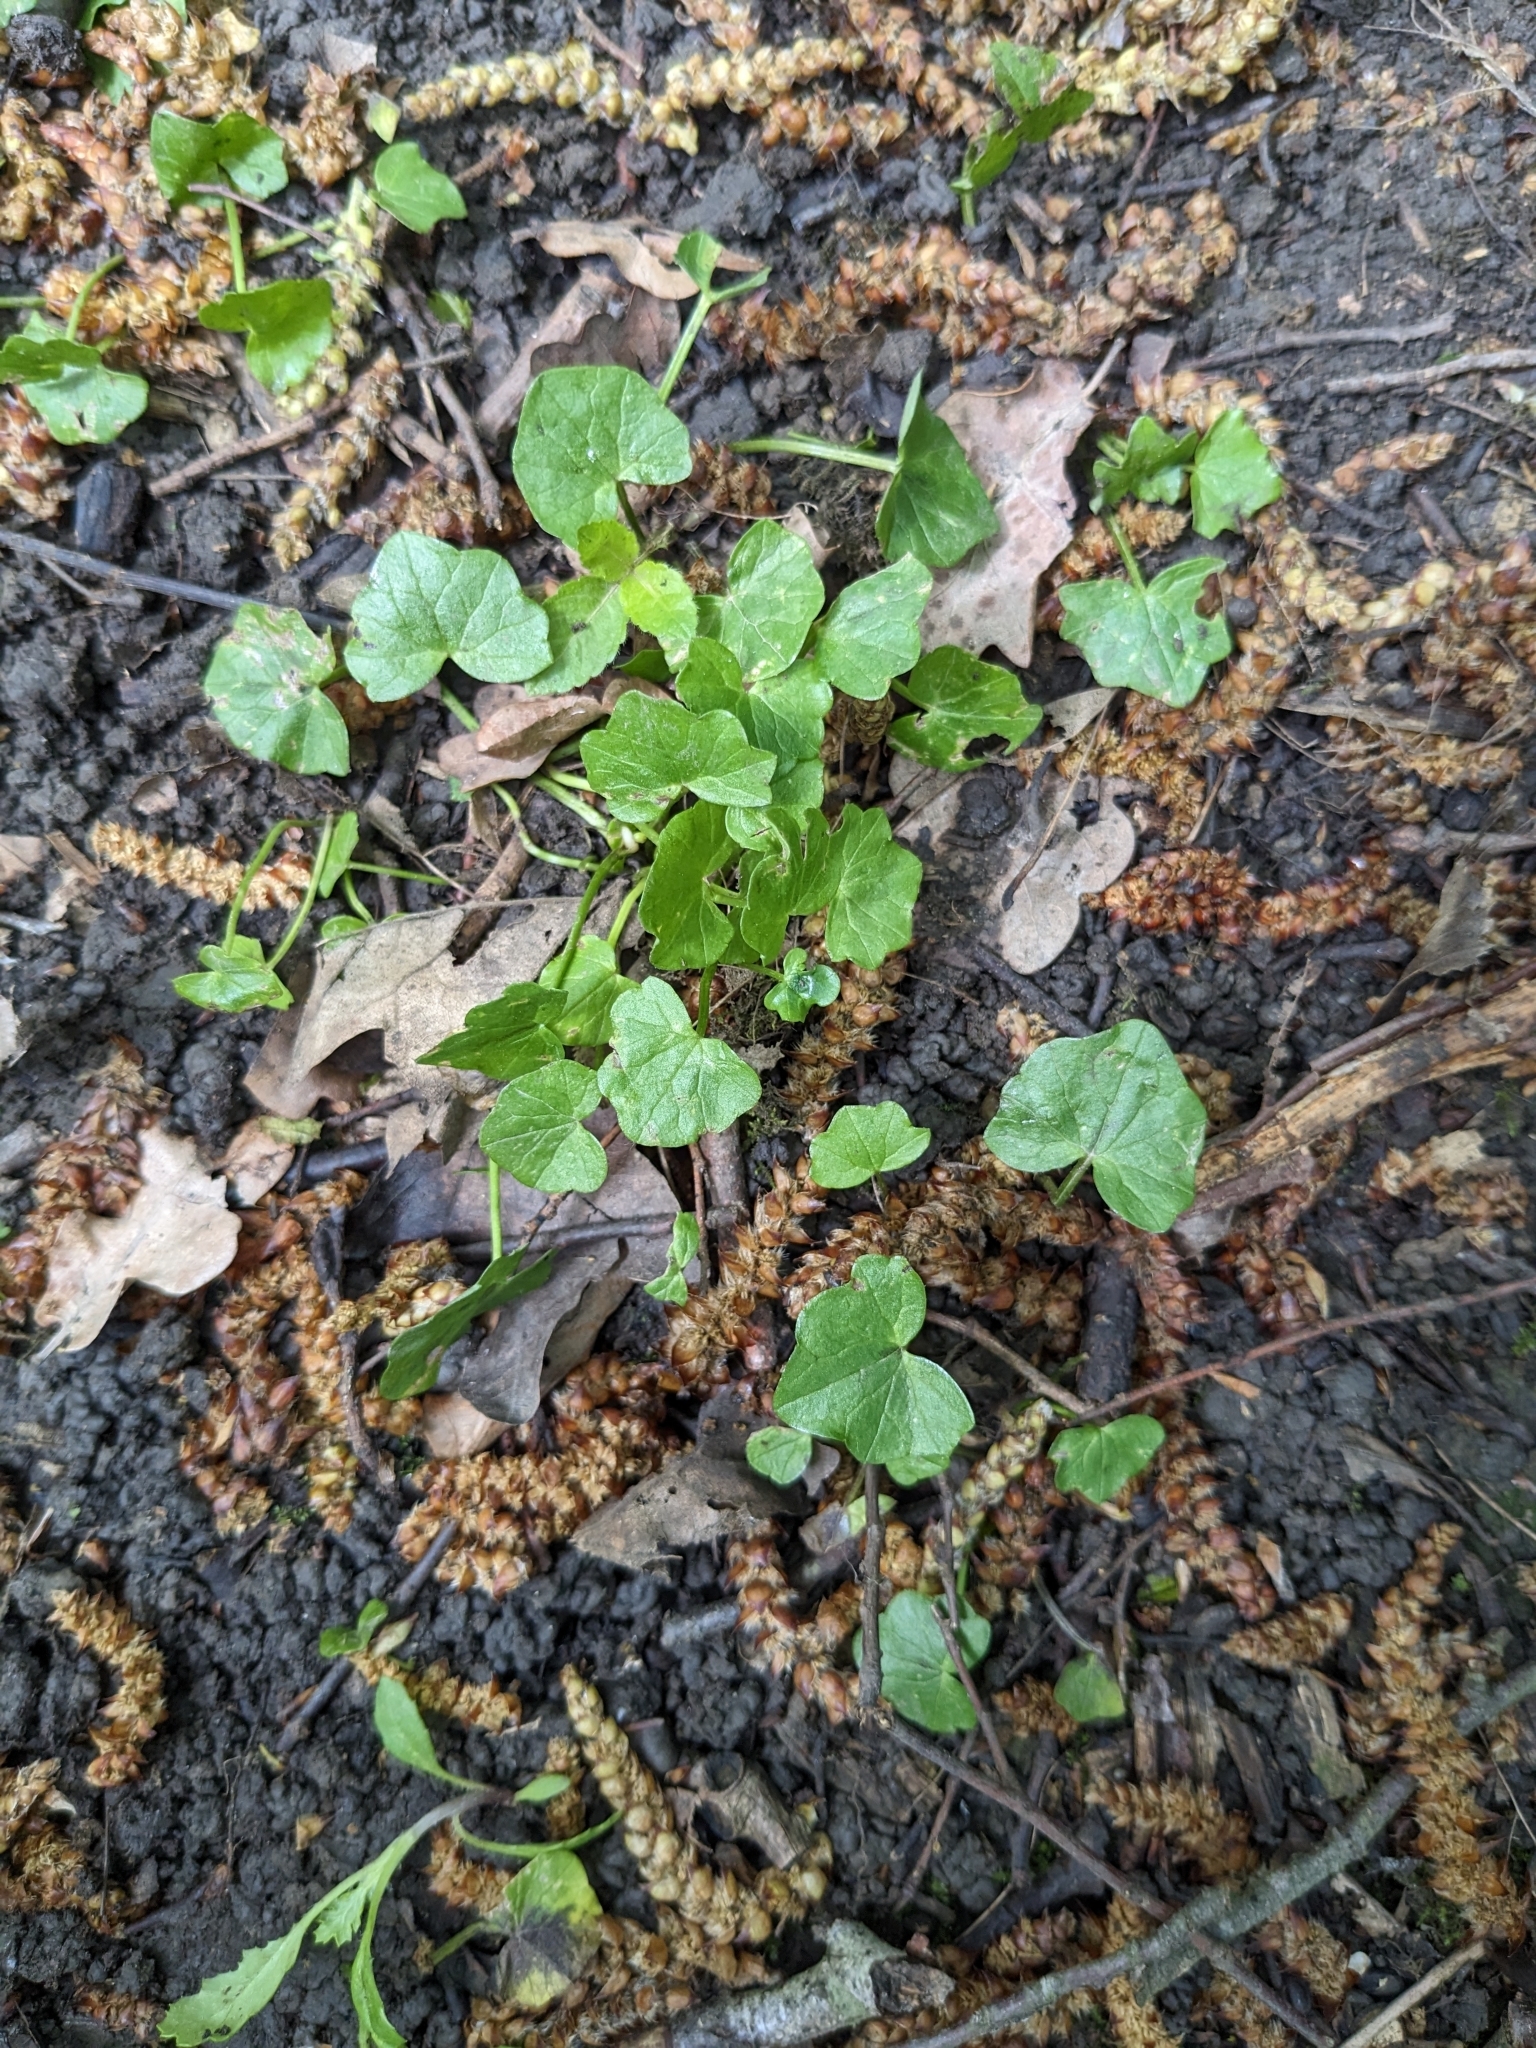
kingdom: Plantae
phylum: Tracheophyta
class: Magnoliopsida
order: Ranunculales
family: Ranunculaceae
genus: Ficaria
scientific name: Ficaria verna
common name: Lesser celandine
